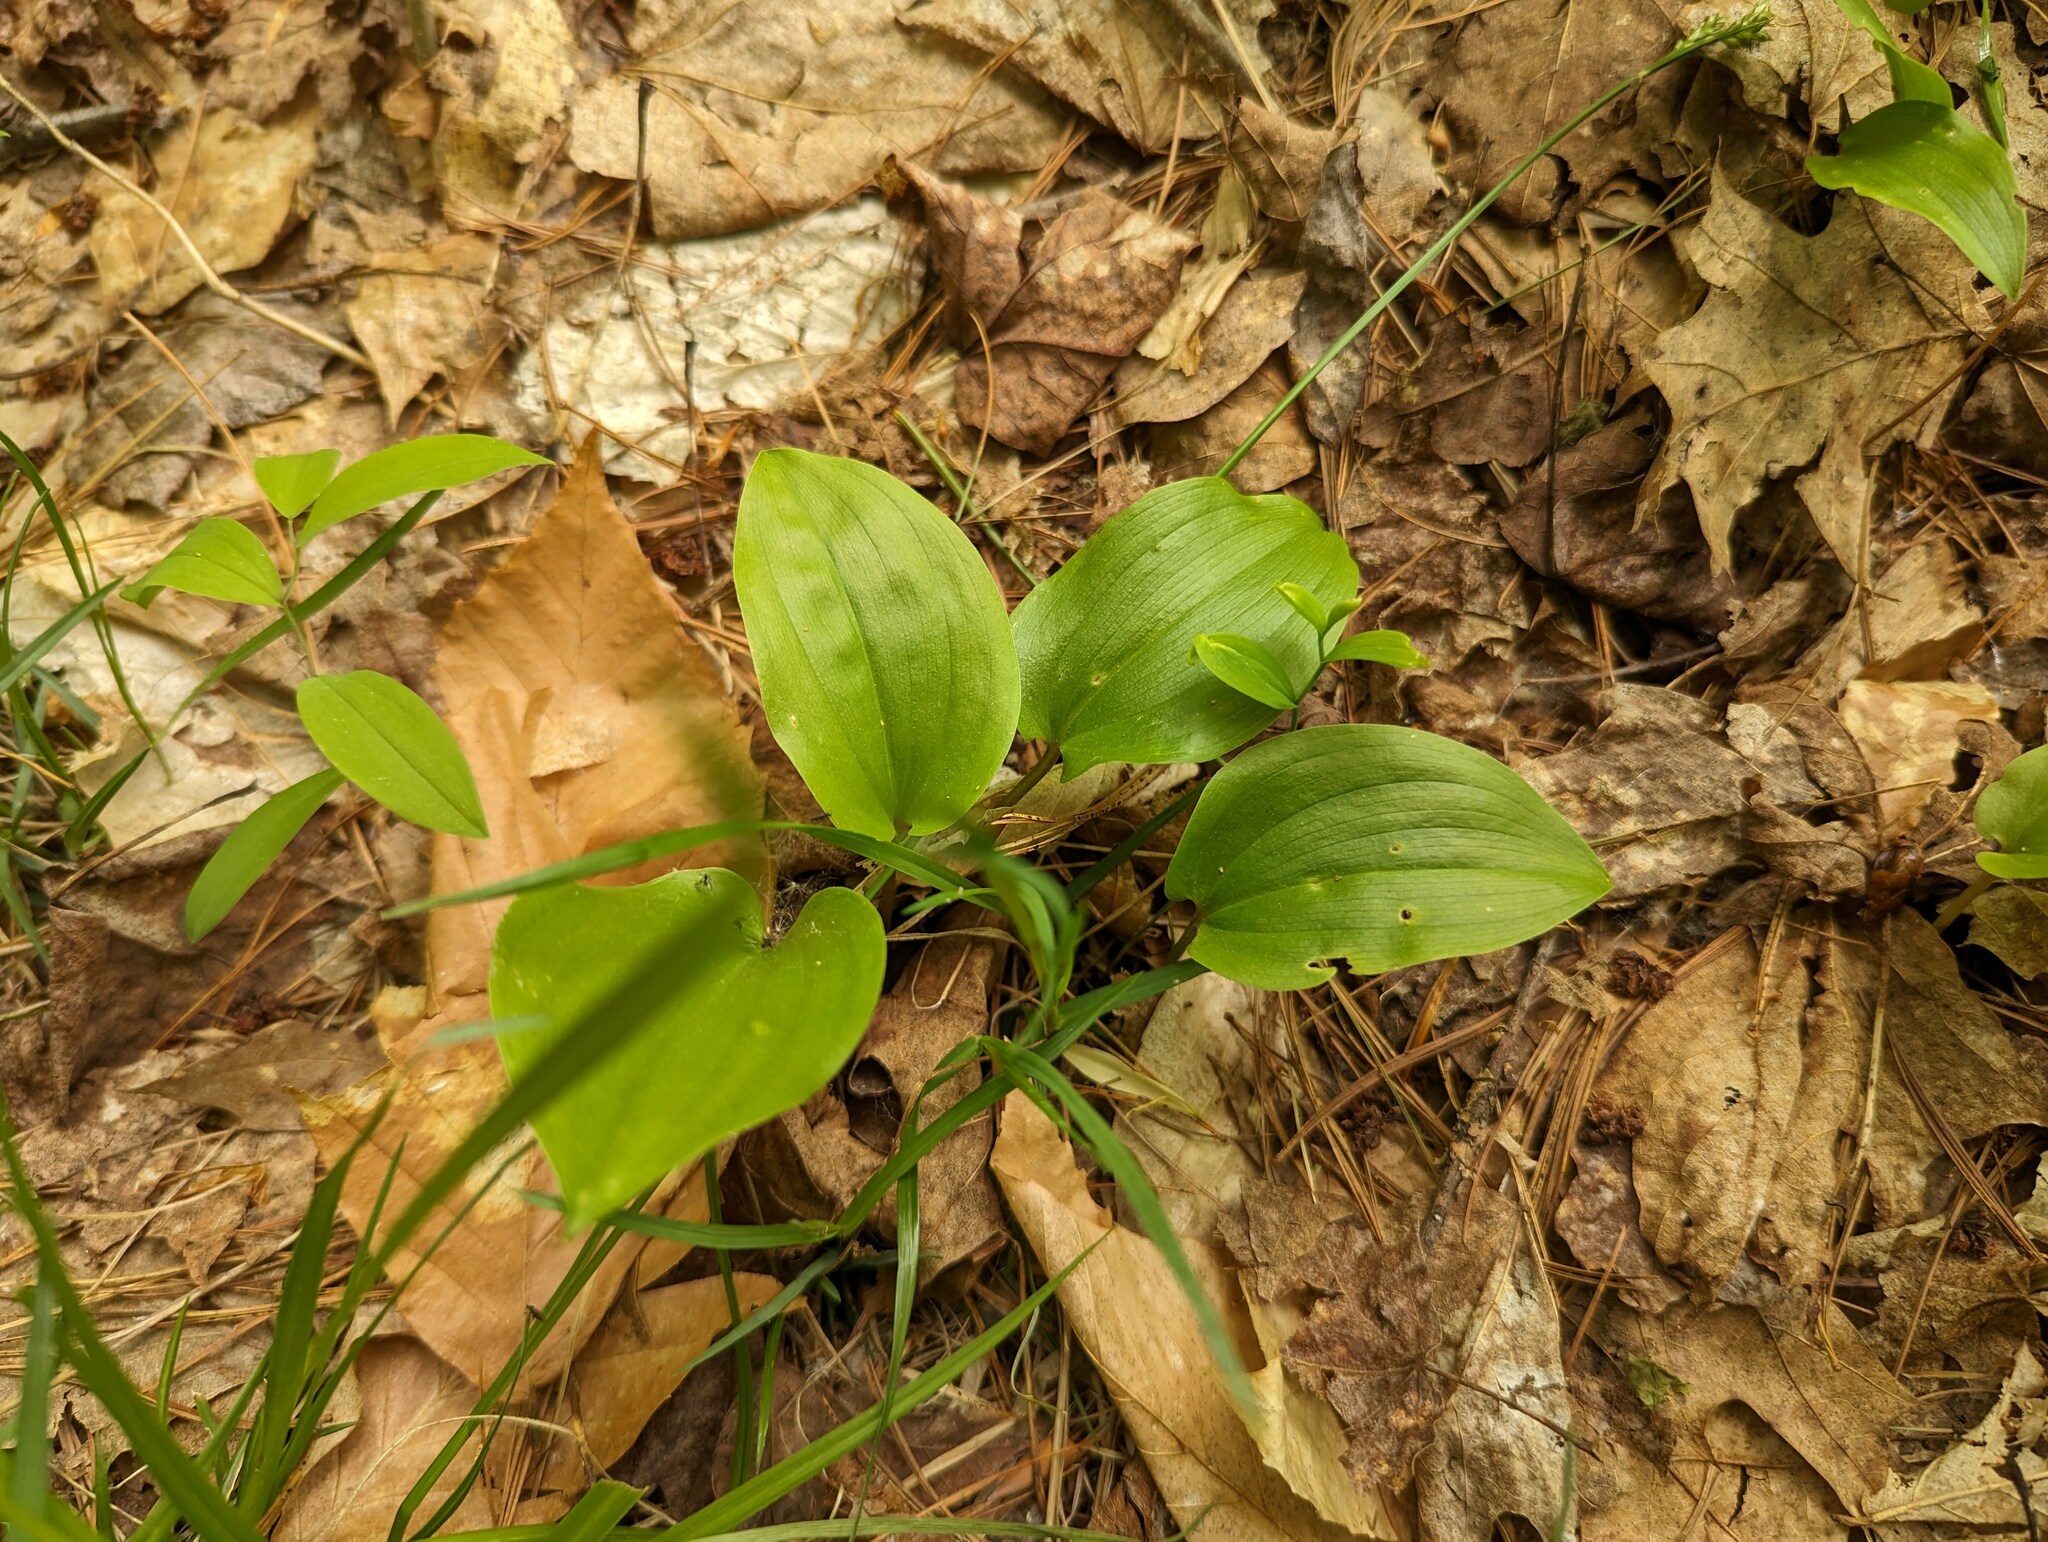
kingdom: Plantae
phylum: Tracheophyta
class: Liliopsida
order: Asparagales
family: Asparagaceae
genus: Maianthemum
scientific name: Maianthemum canadense
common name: False lily-of-the-valley
